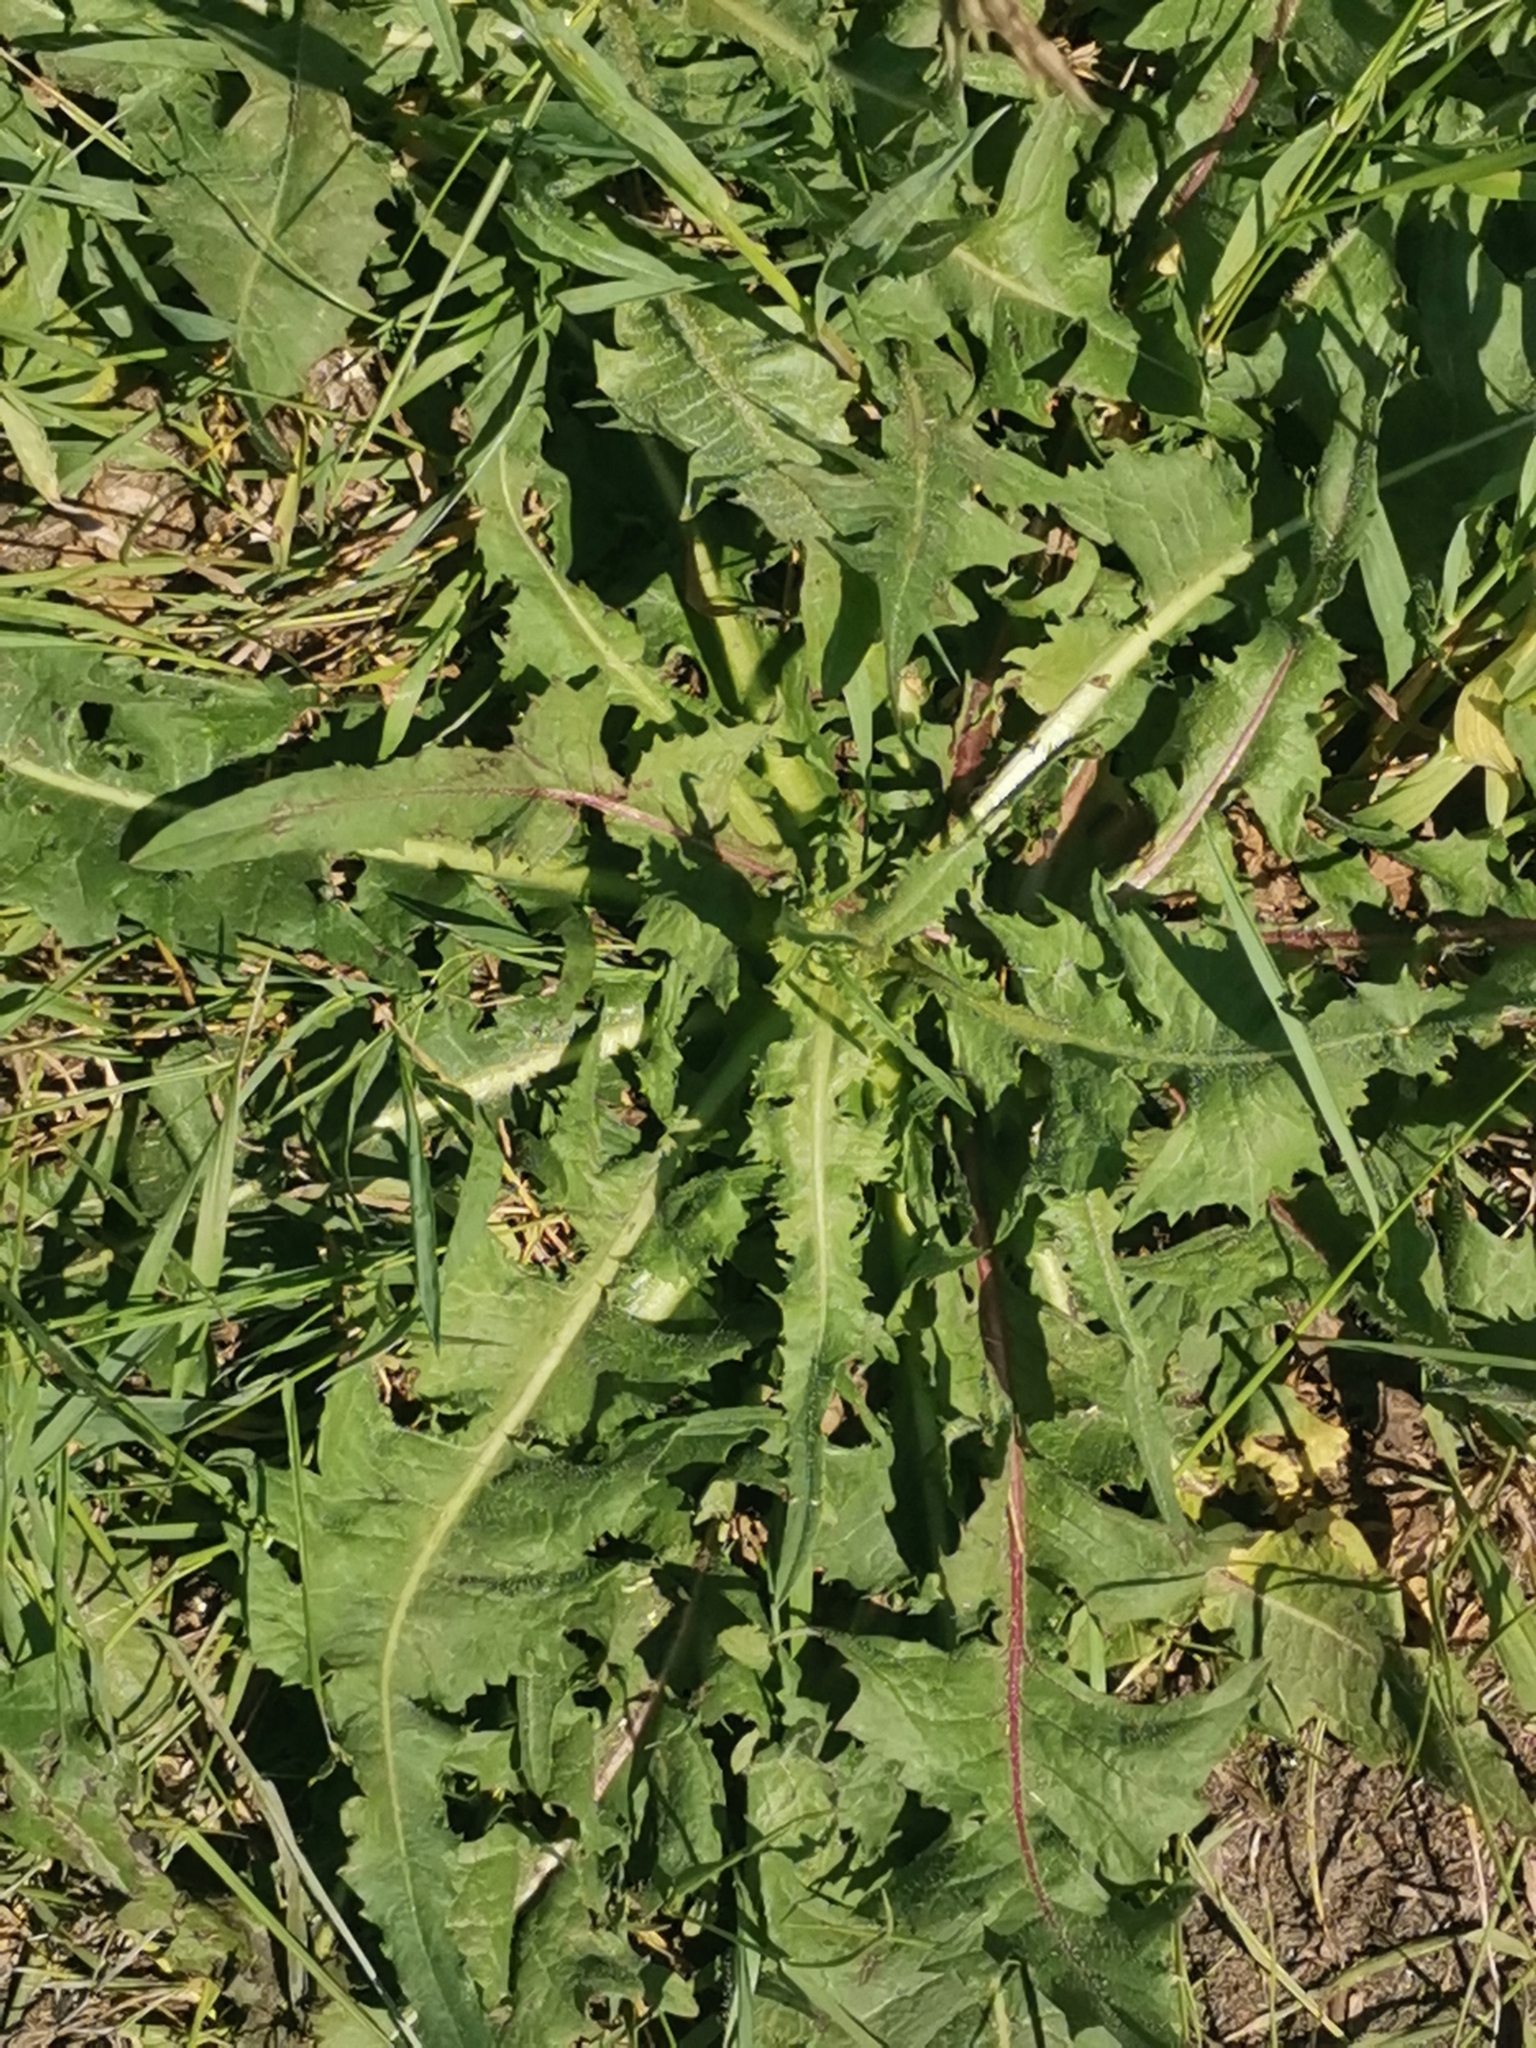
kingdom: Plantae
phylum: Tracheophyta
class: Magnoliopsida
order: Asterales
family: Asteraceae
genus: Cichorium
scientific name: Cichorium intybus
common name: Chicory
